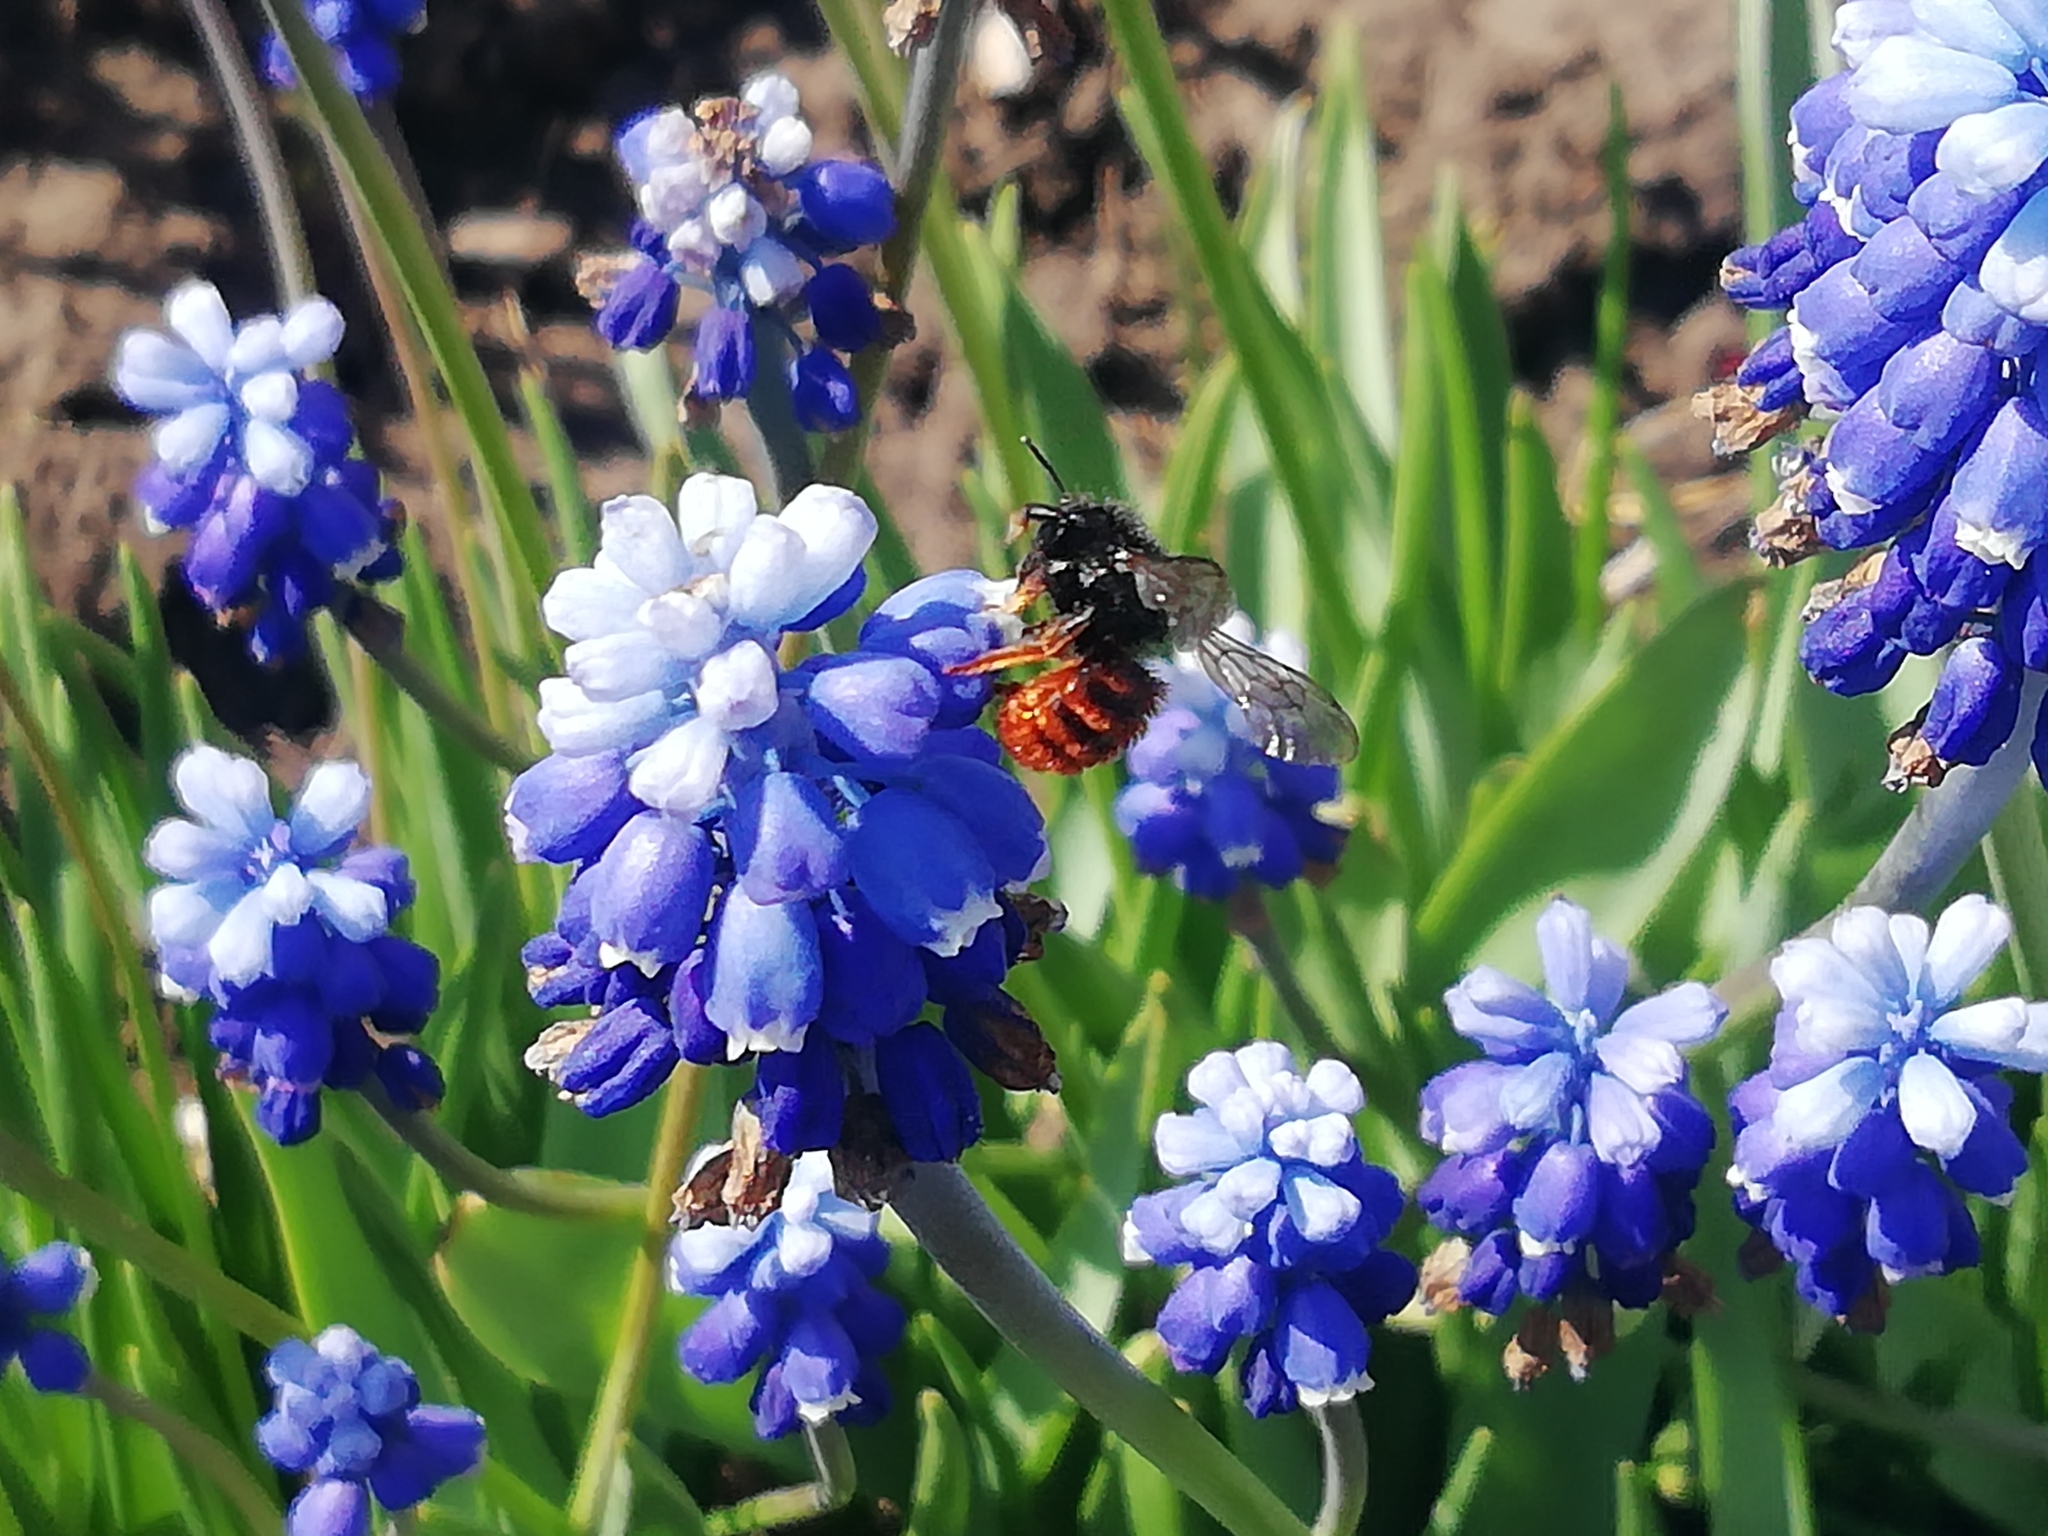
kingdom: Animalia
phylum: Arthropoda
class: Insecta
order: Hymenoptera
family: Megachilidae
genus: Osmia
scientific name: Osmia bicolor
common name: Red-tailed mason bee
